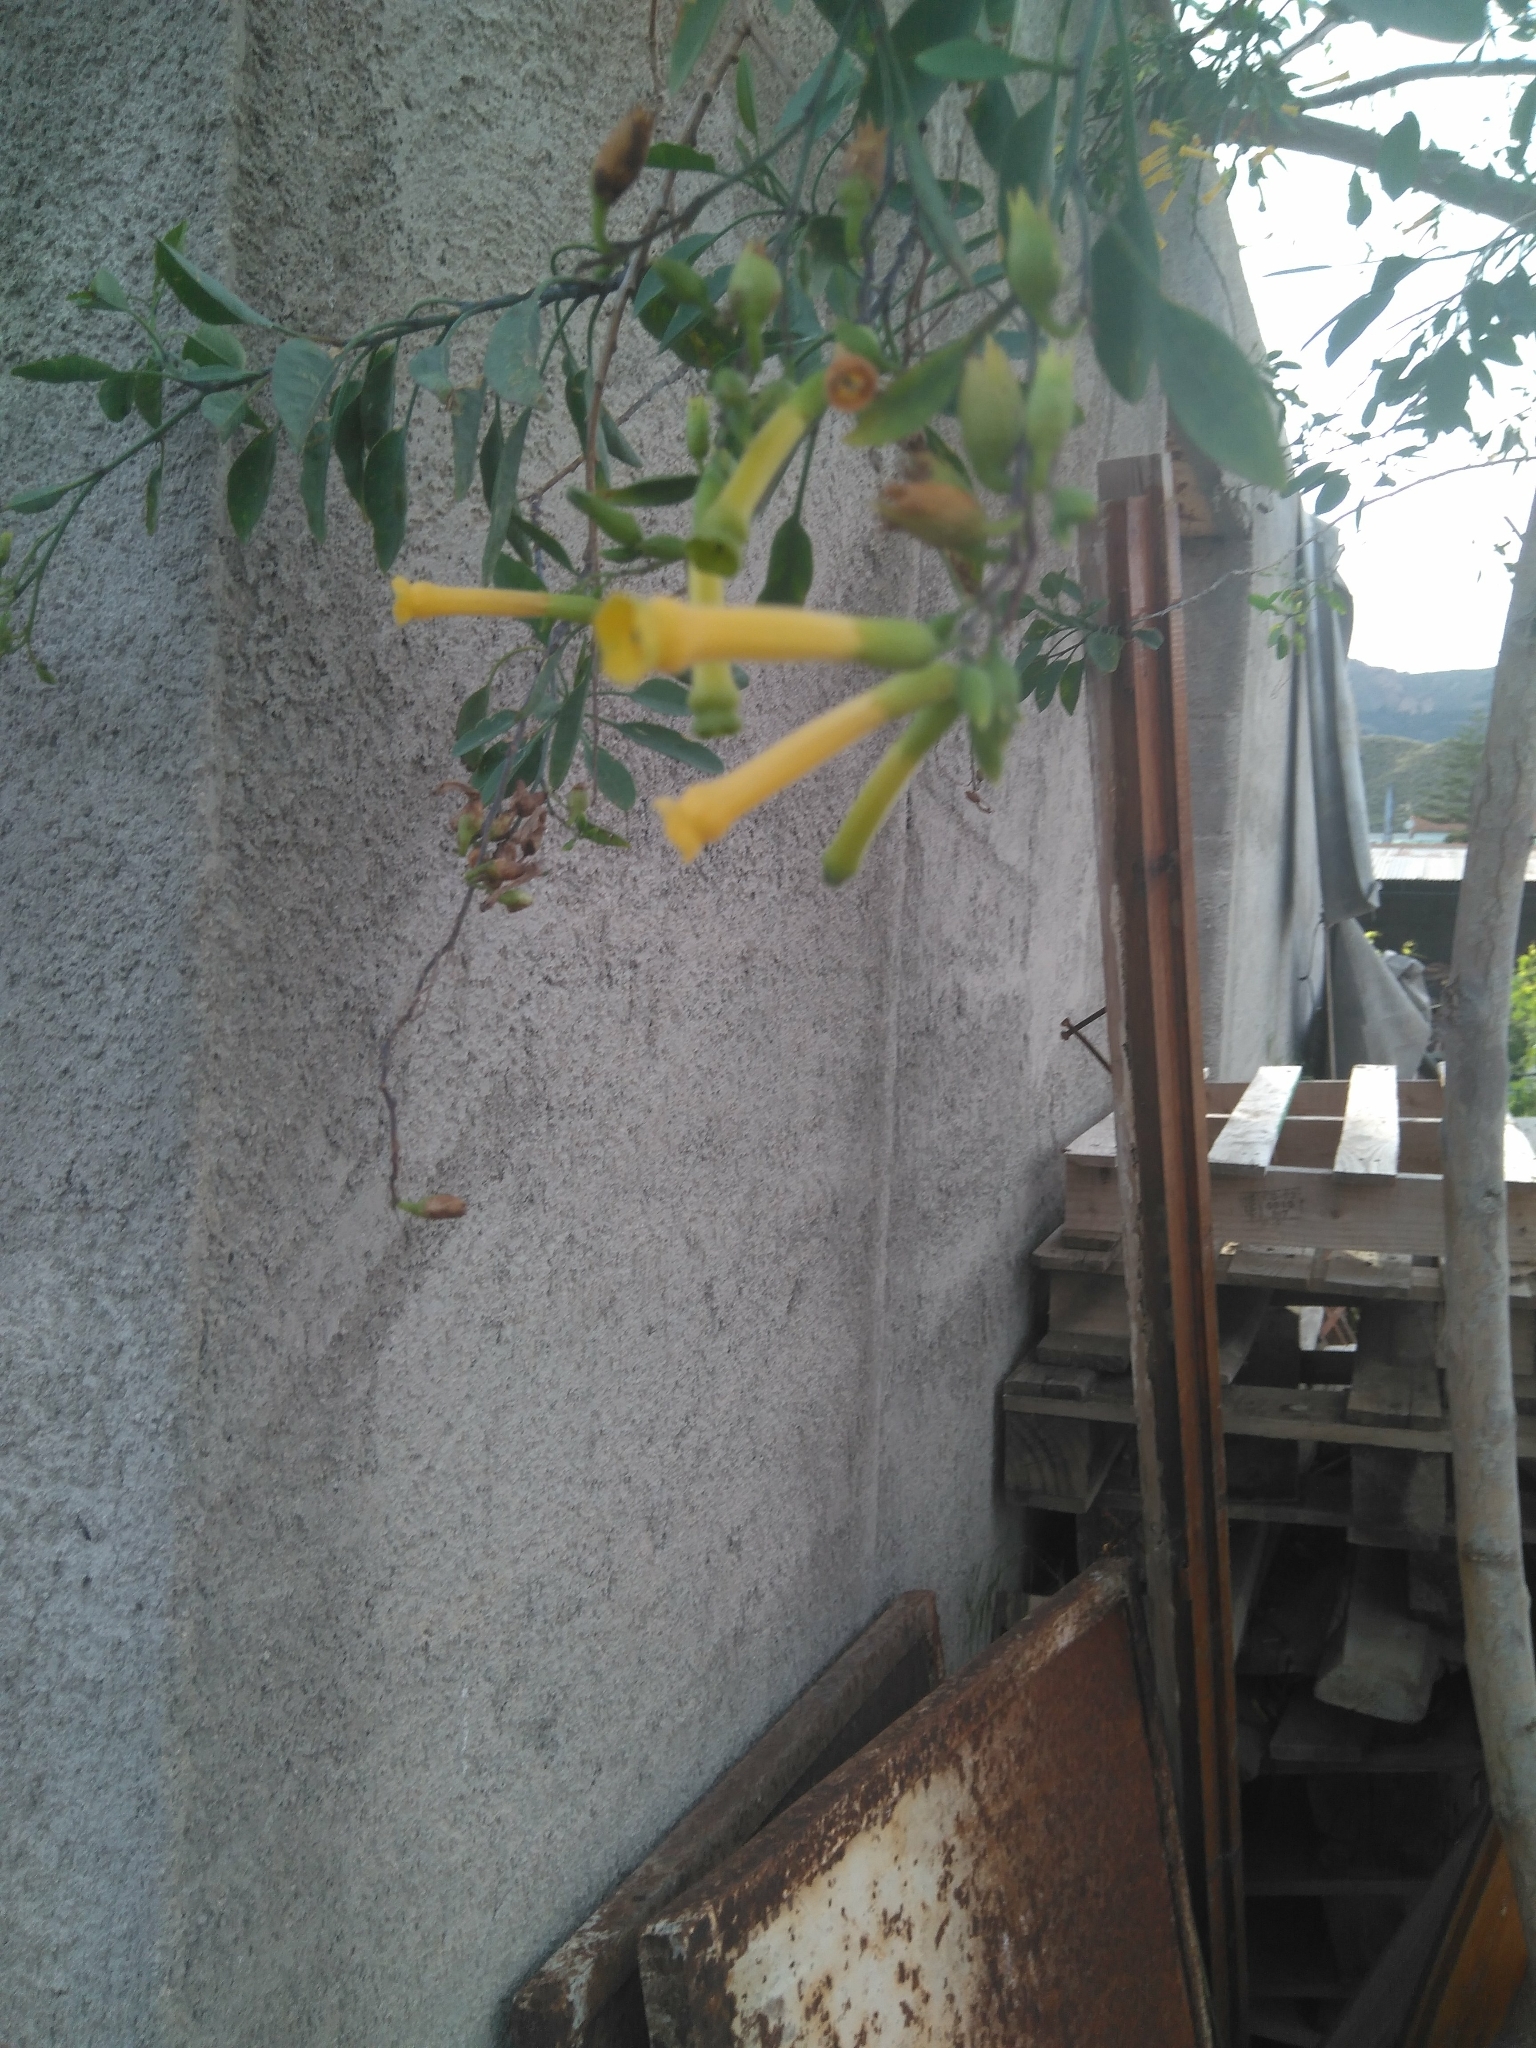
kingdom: Plantae
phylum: Tracheophyta
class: Magnoliopsida
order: Solanales
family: Solanaceae
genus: Nicotiana
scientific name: Nicotiana glauca
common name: Tree tobacco
